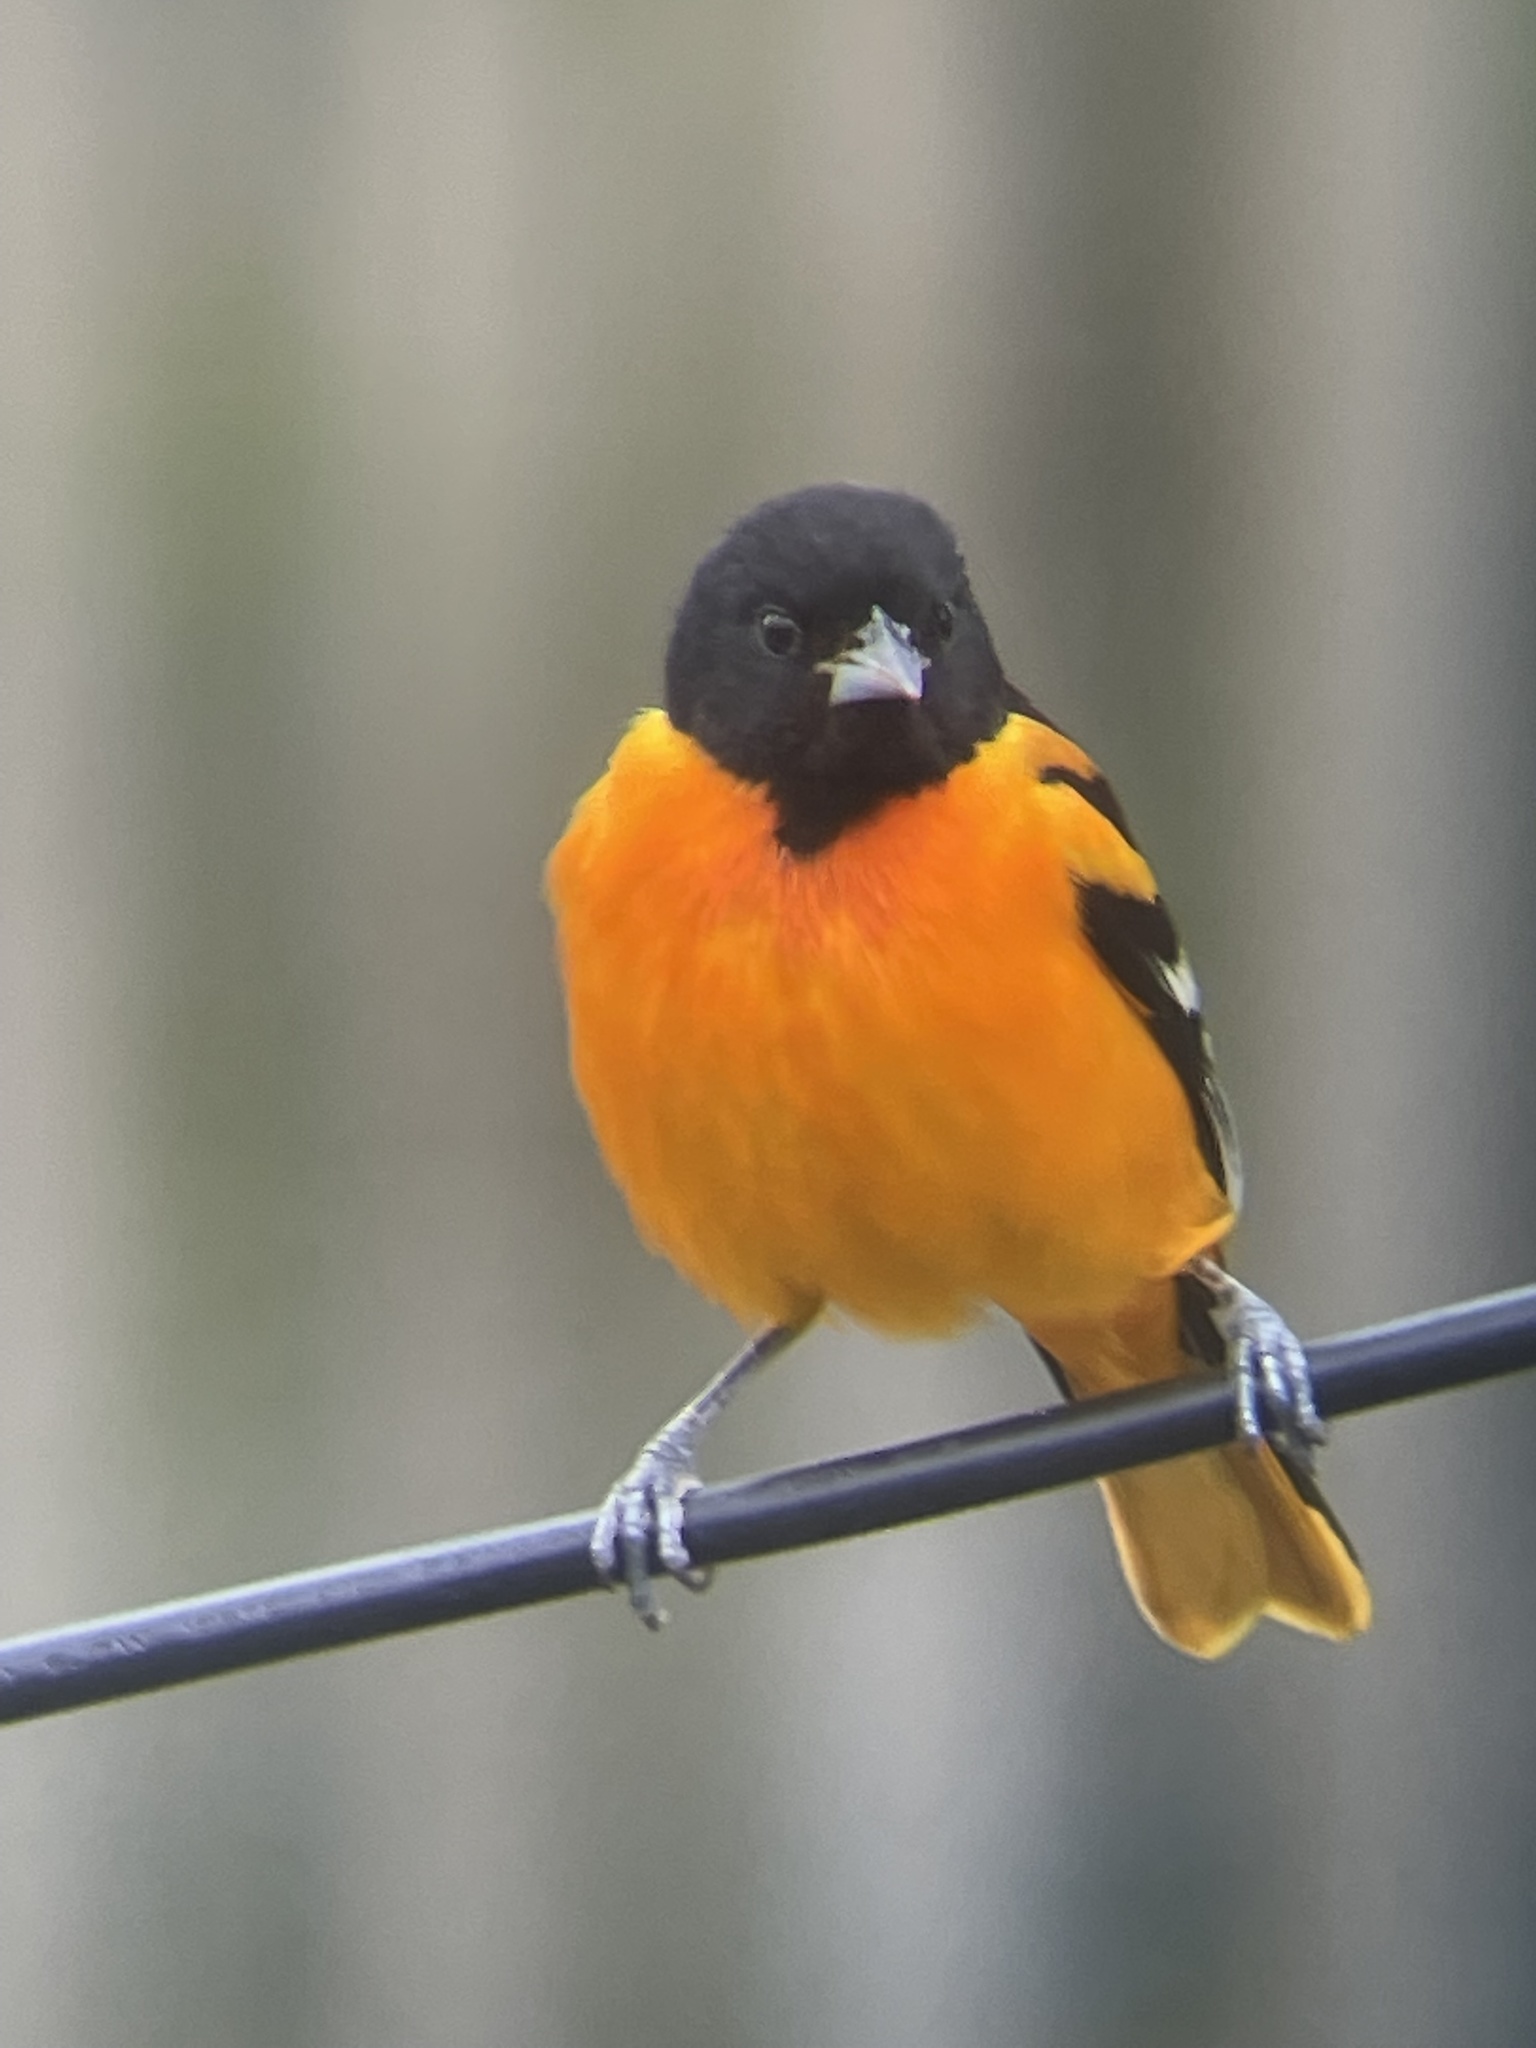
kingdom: Animalia
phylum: Chordata
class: Aves
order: Passeriformes
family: Icteridae
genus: Icterus
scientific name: Icterus galbula
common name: Baltimore oriole
